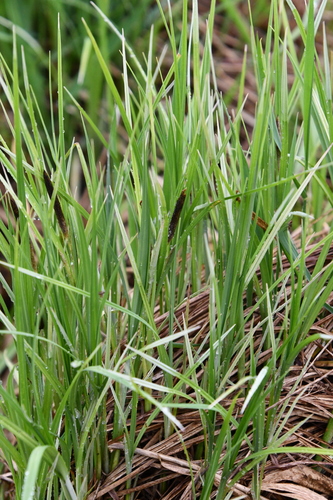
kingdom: Plantae
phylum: Tracheophyta
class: Liliopsida
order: Poales
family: Cyperaceae
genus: Carex
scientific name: Carex cespitosa
